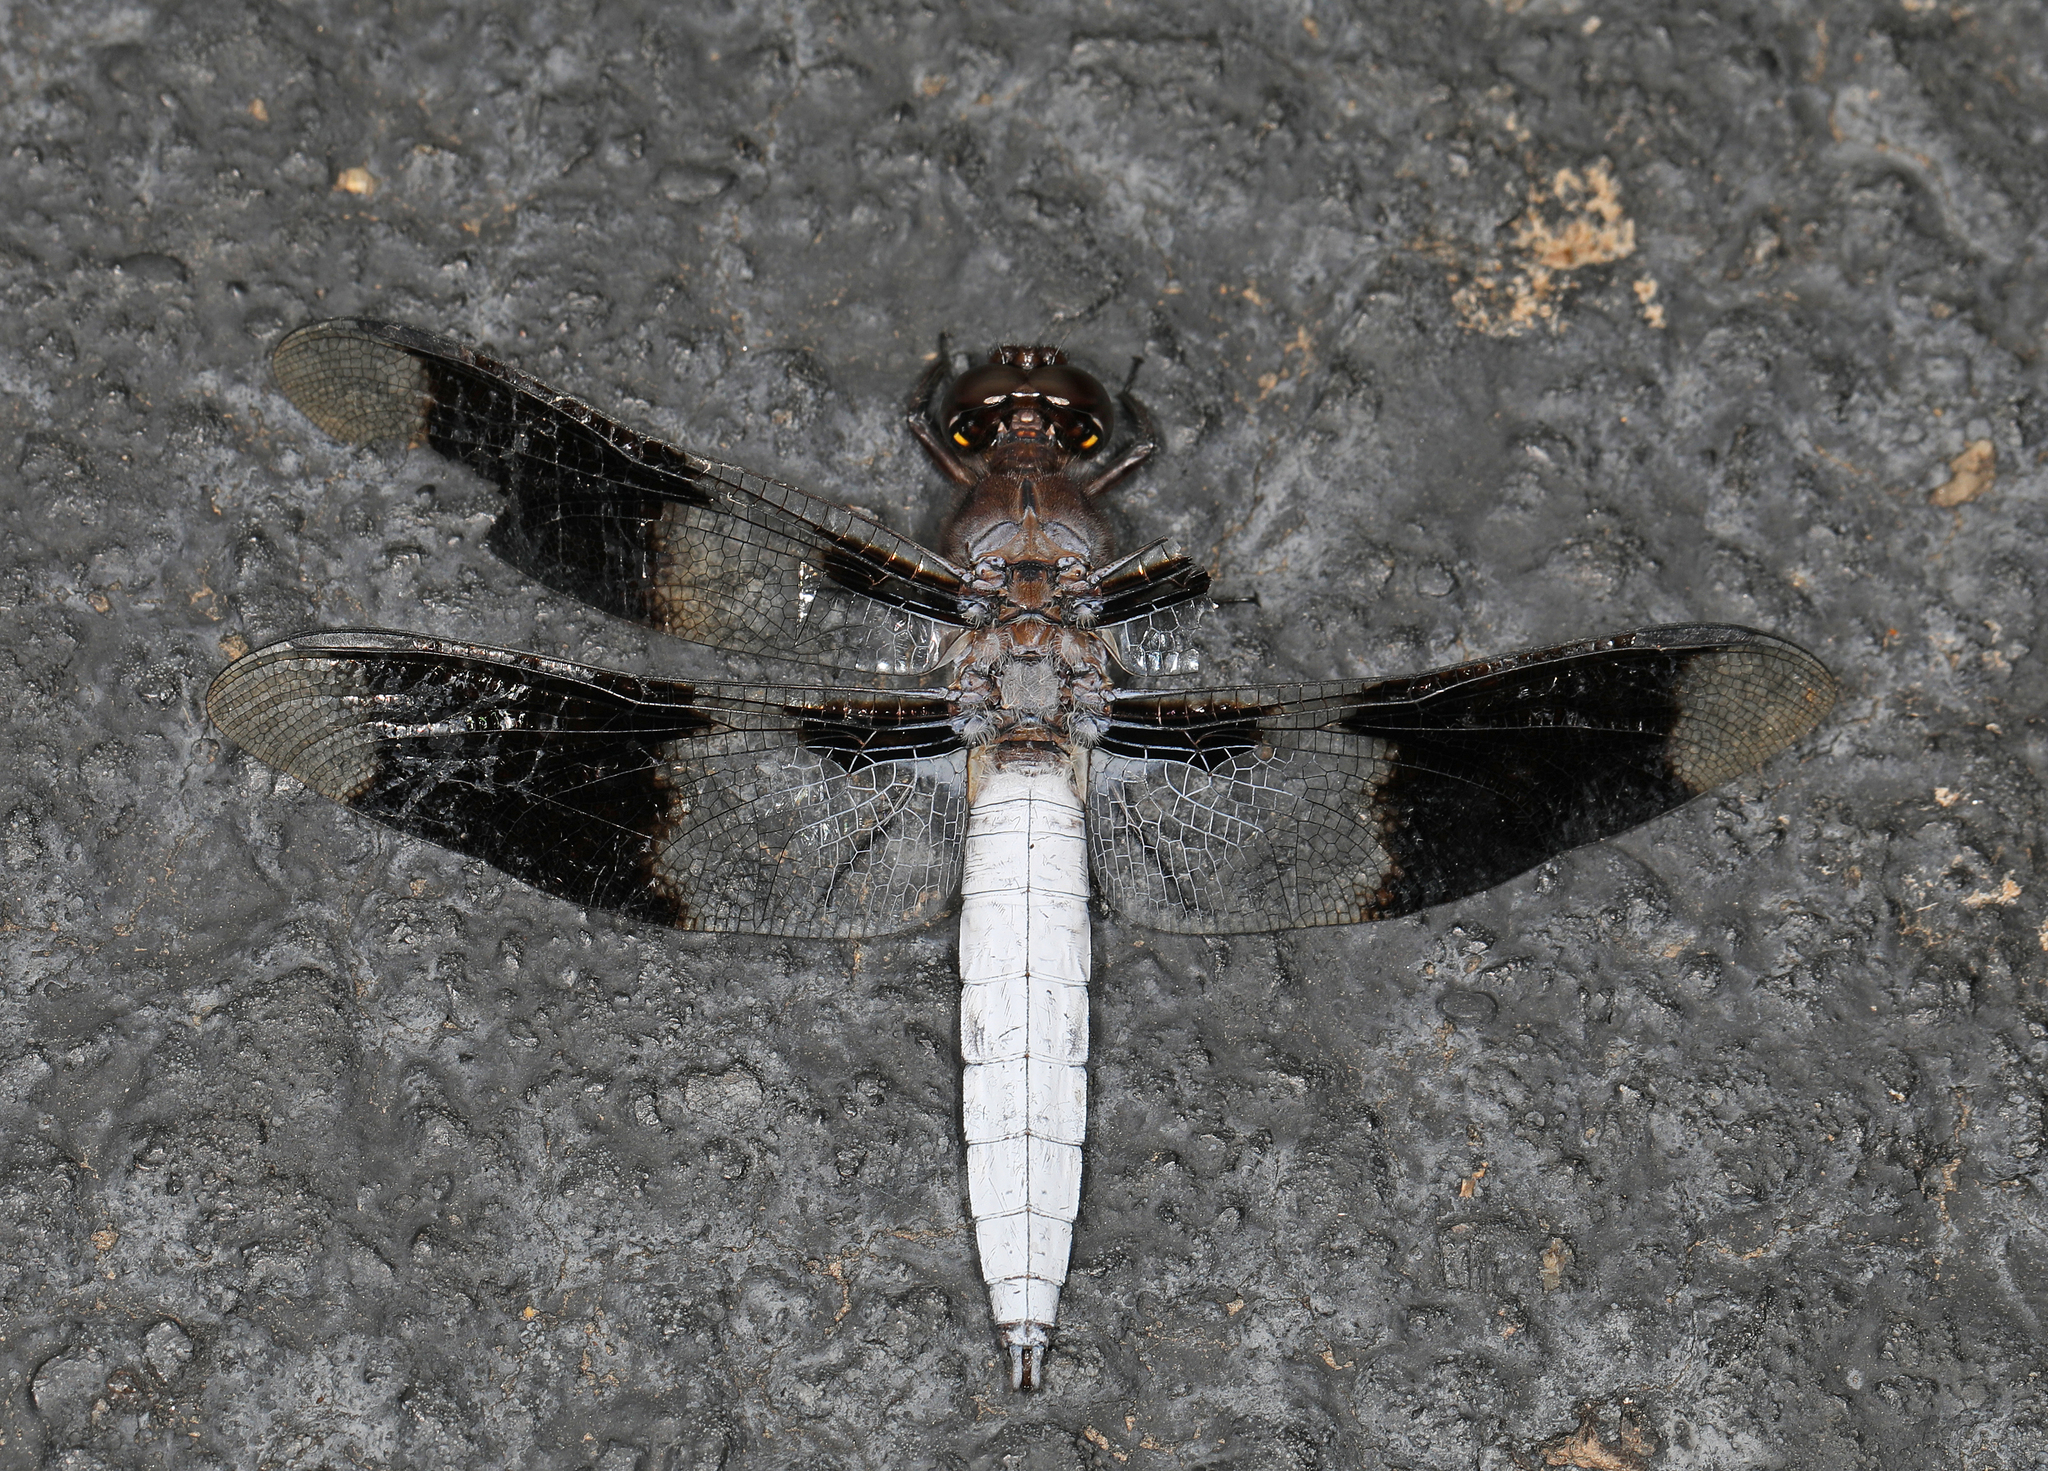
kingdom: Animalia
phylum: Arthropoda
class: Insecta
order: Odonata
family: Libellulidae
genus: Plathemis
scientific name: Plathemis lydia
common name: Common whitetail
